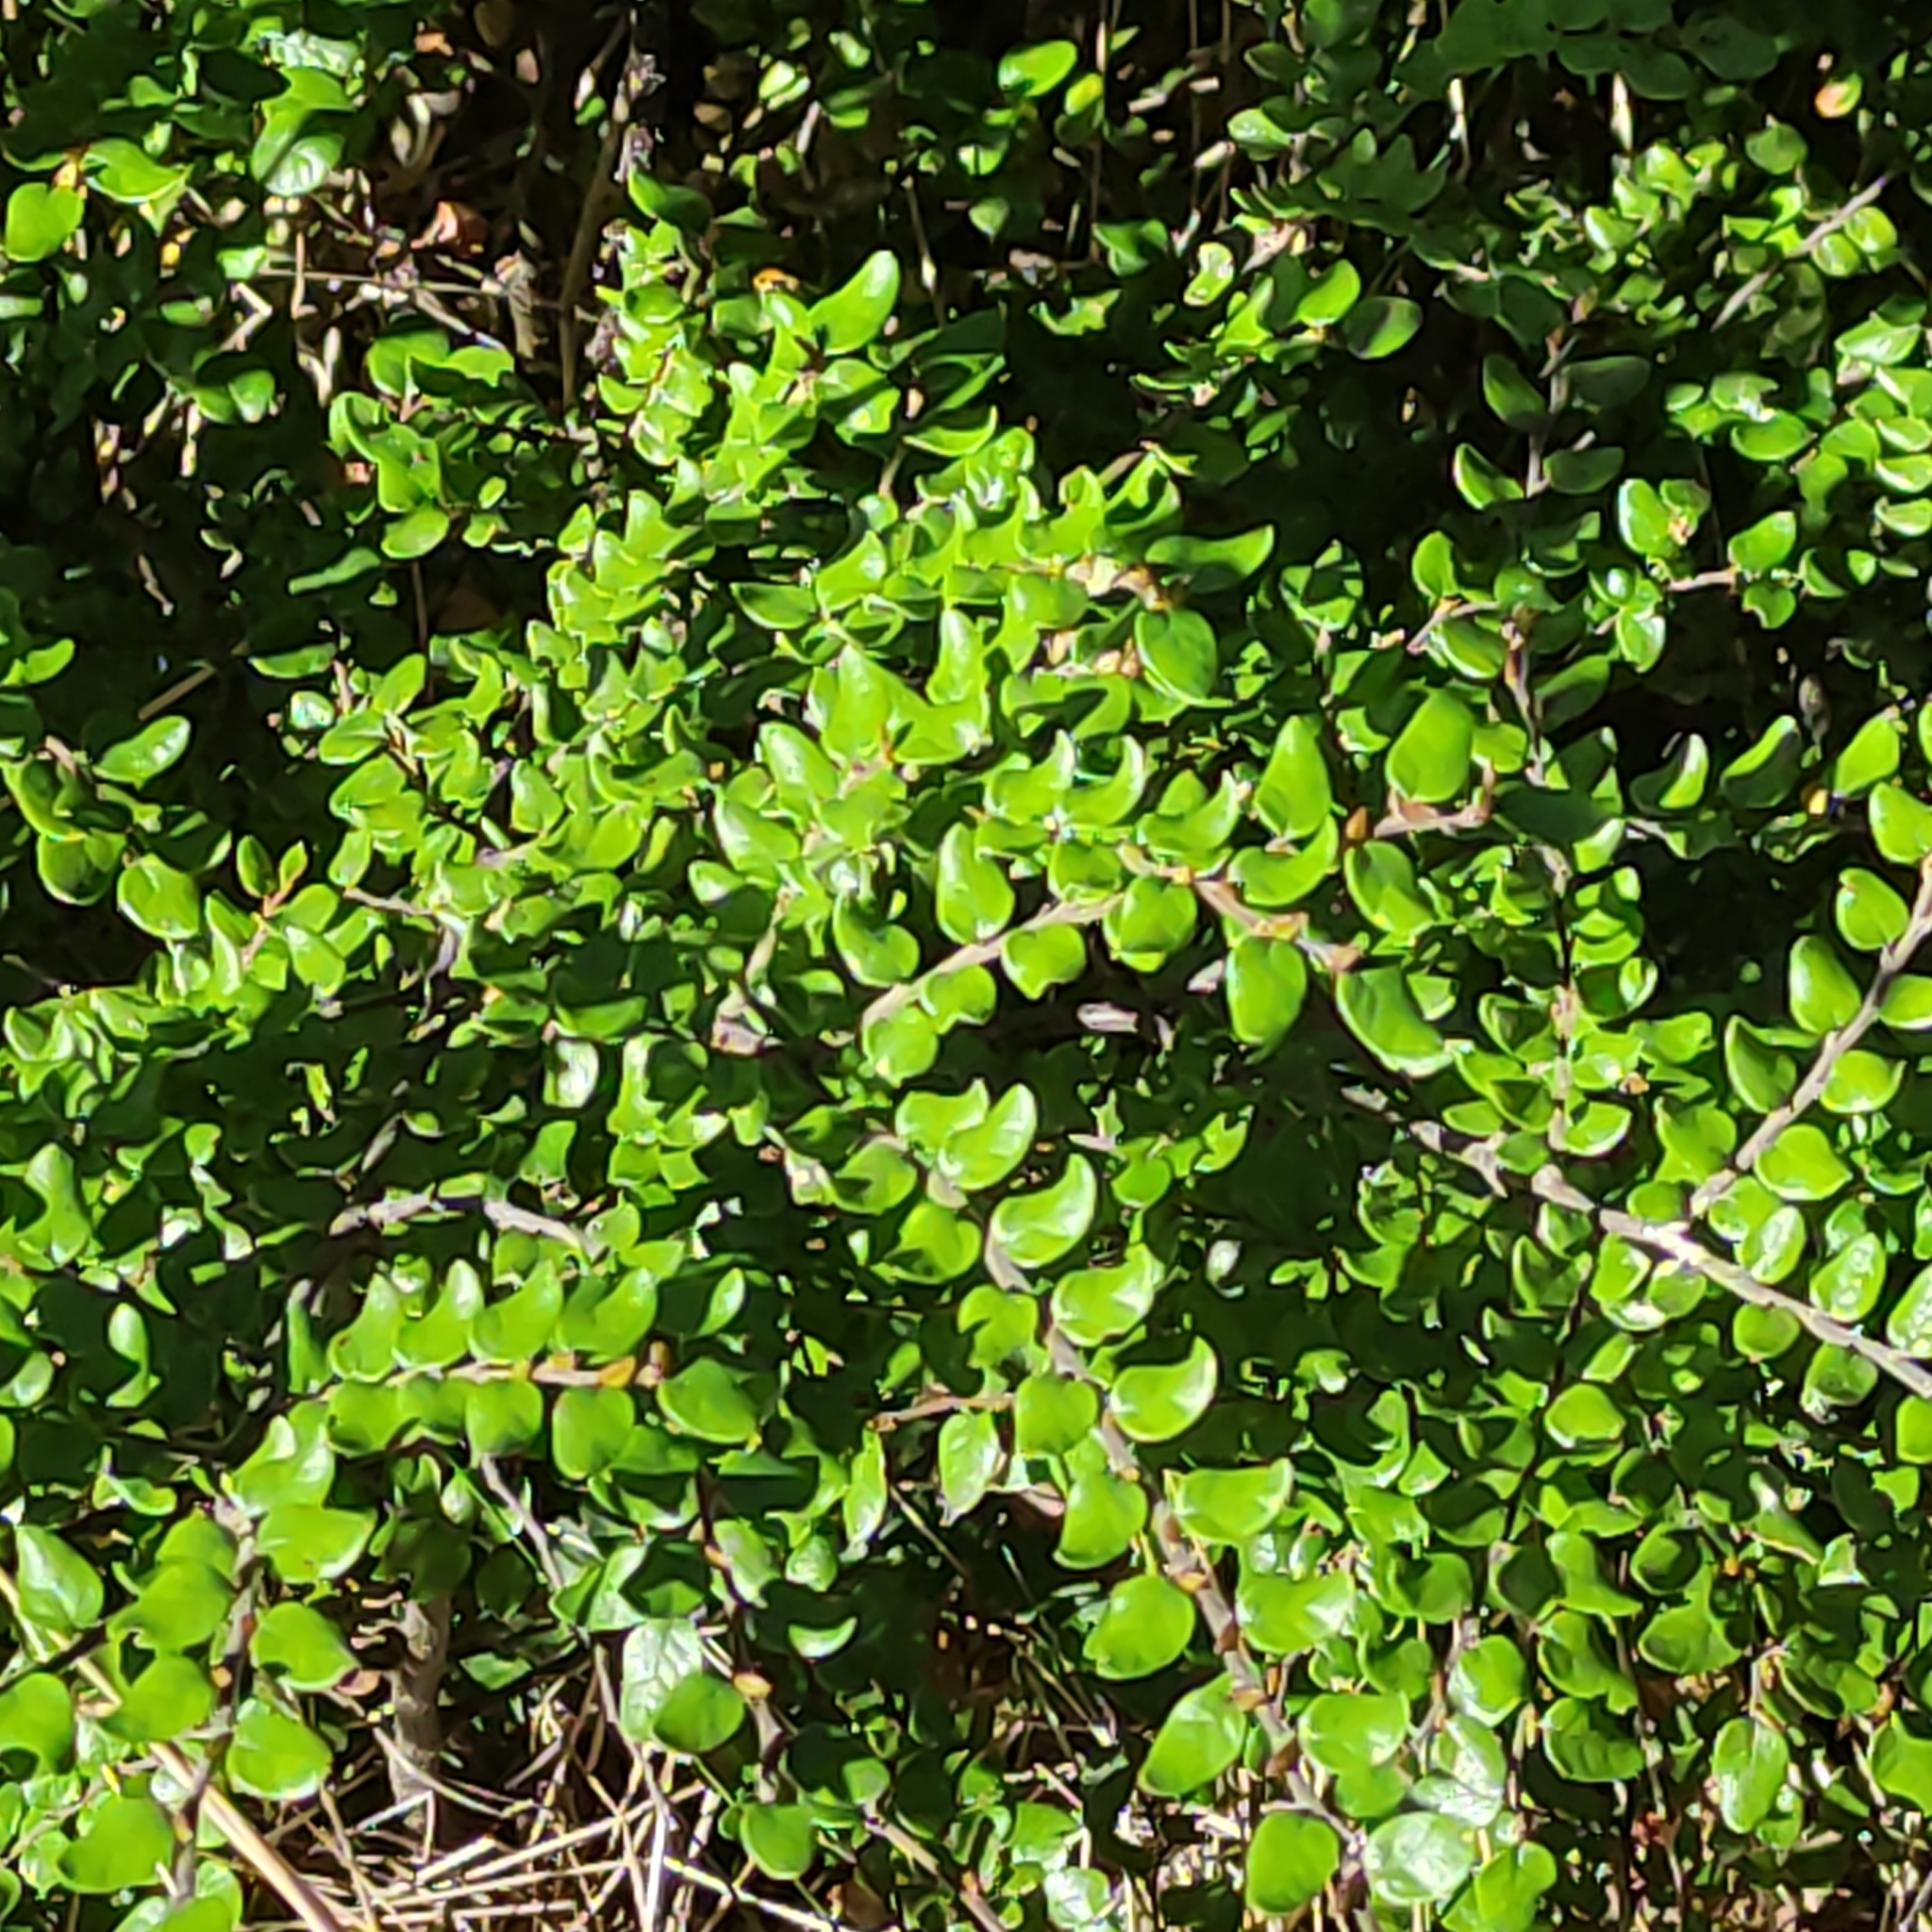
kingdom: Plantae
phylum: Tracheophyta
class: Magnoliopsida
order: Fagales
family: Nothofagaceae
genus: Nothofagus
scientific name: Nothofagus cliffortioides
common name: Mountain beech
